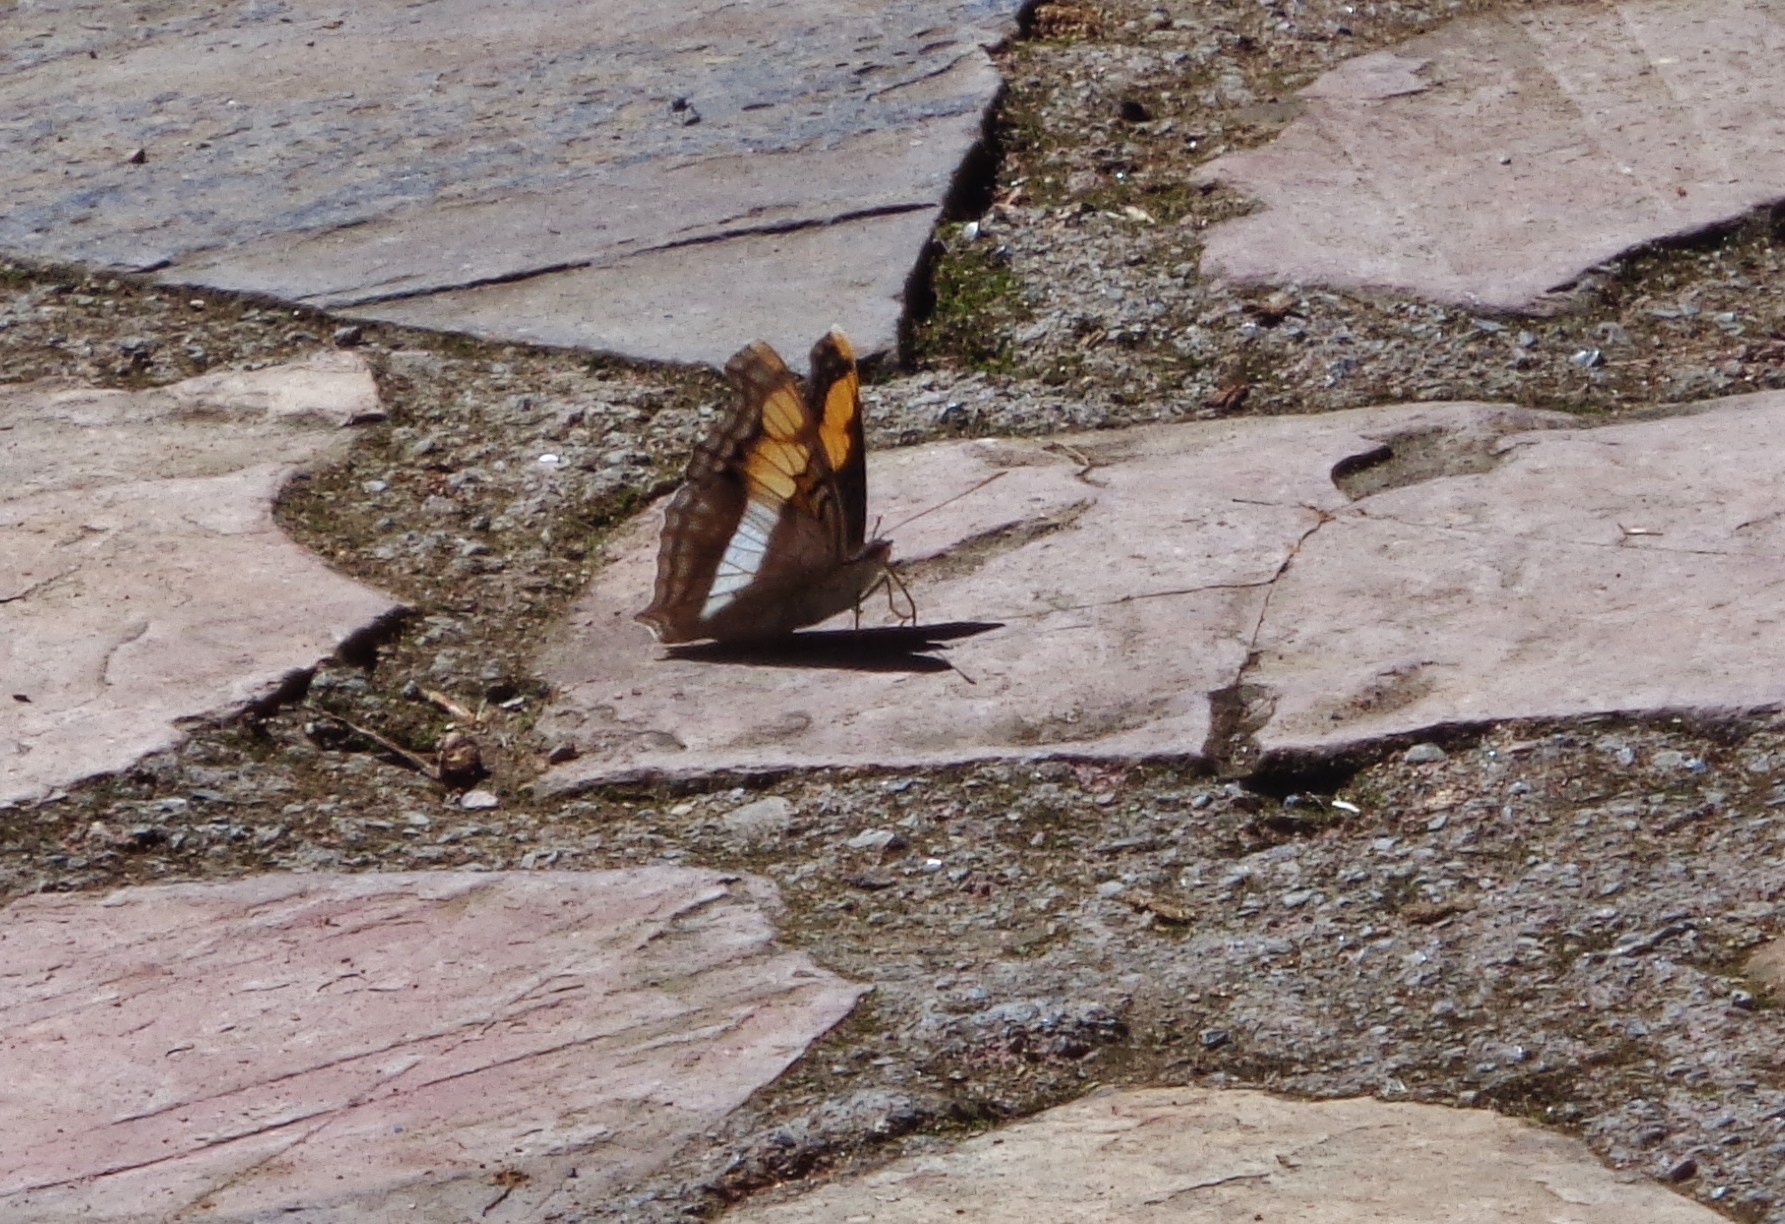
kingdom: Animalia
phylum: Arthropoda
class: Insecta
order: Lepidoptera
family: Nymphalidae
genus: Doxocopa
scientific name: Doxocopa laure
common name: Silver emperor
